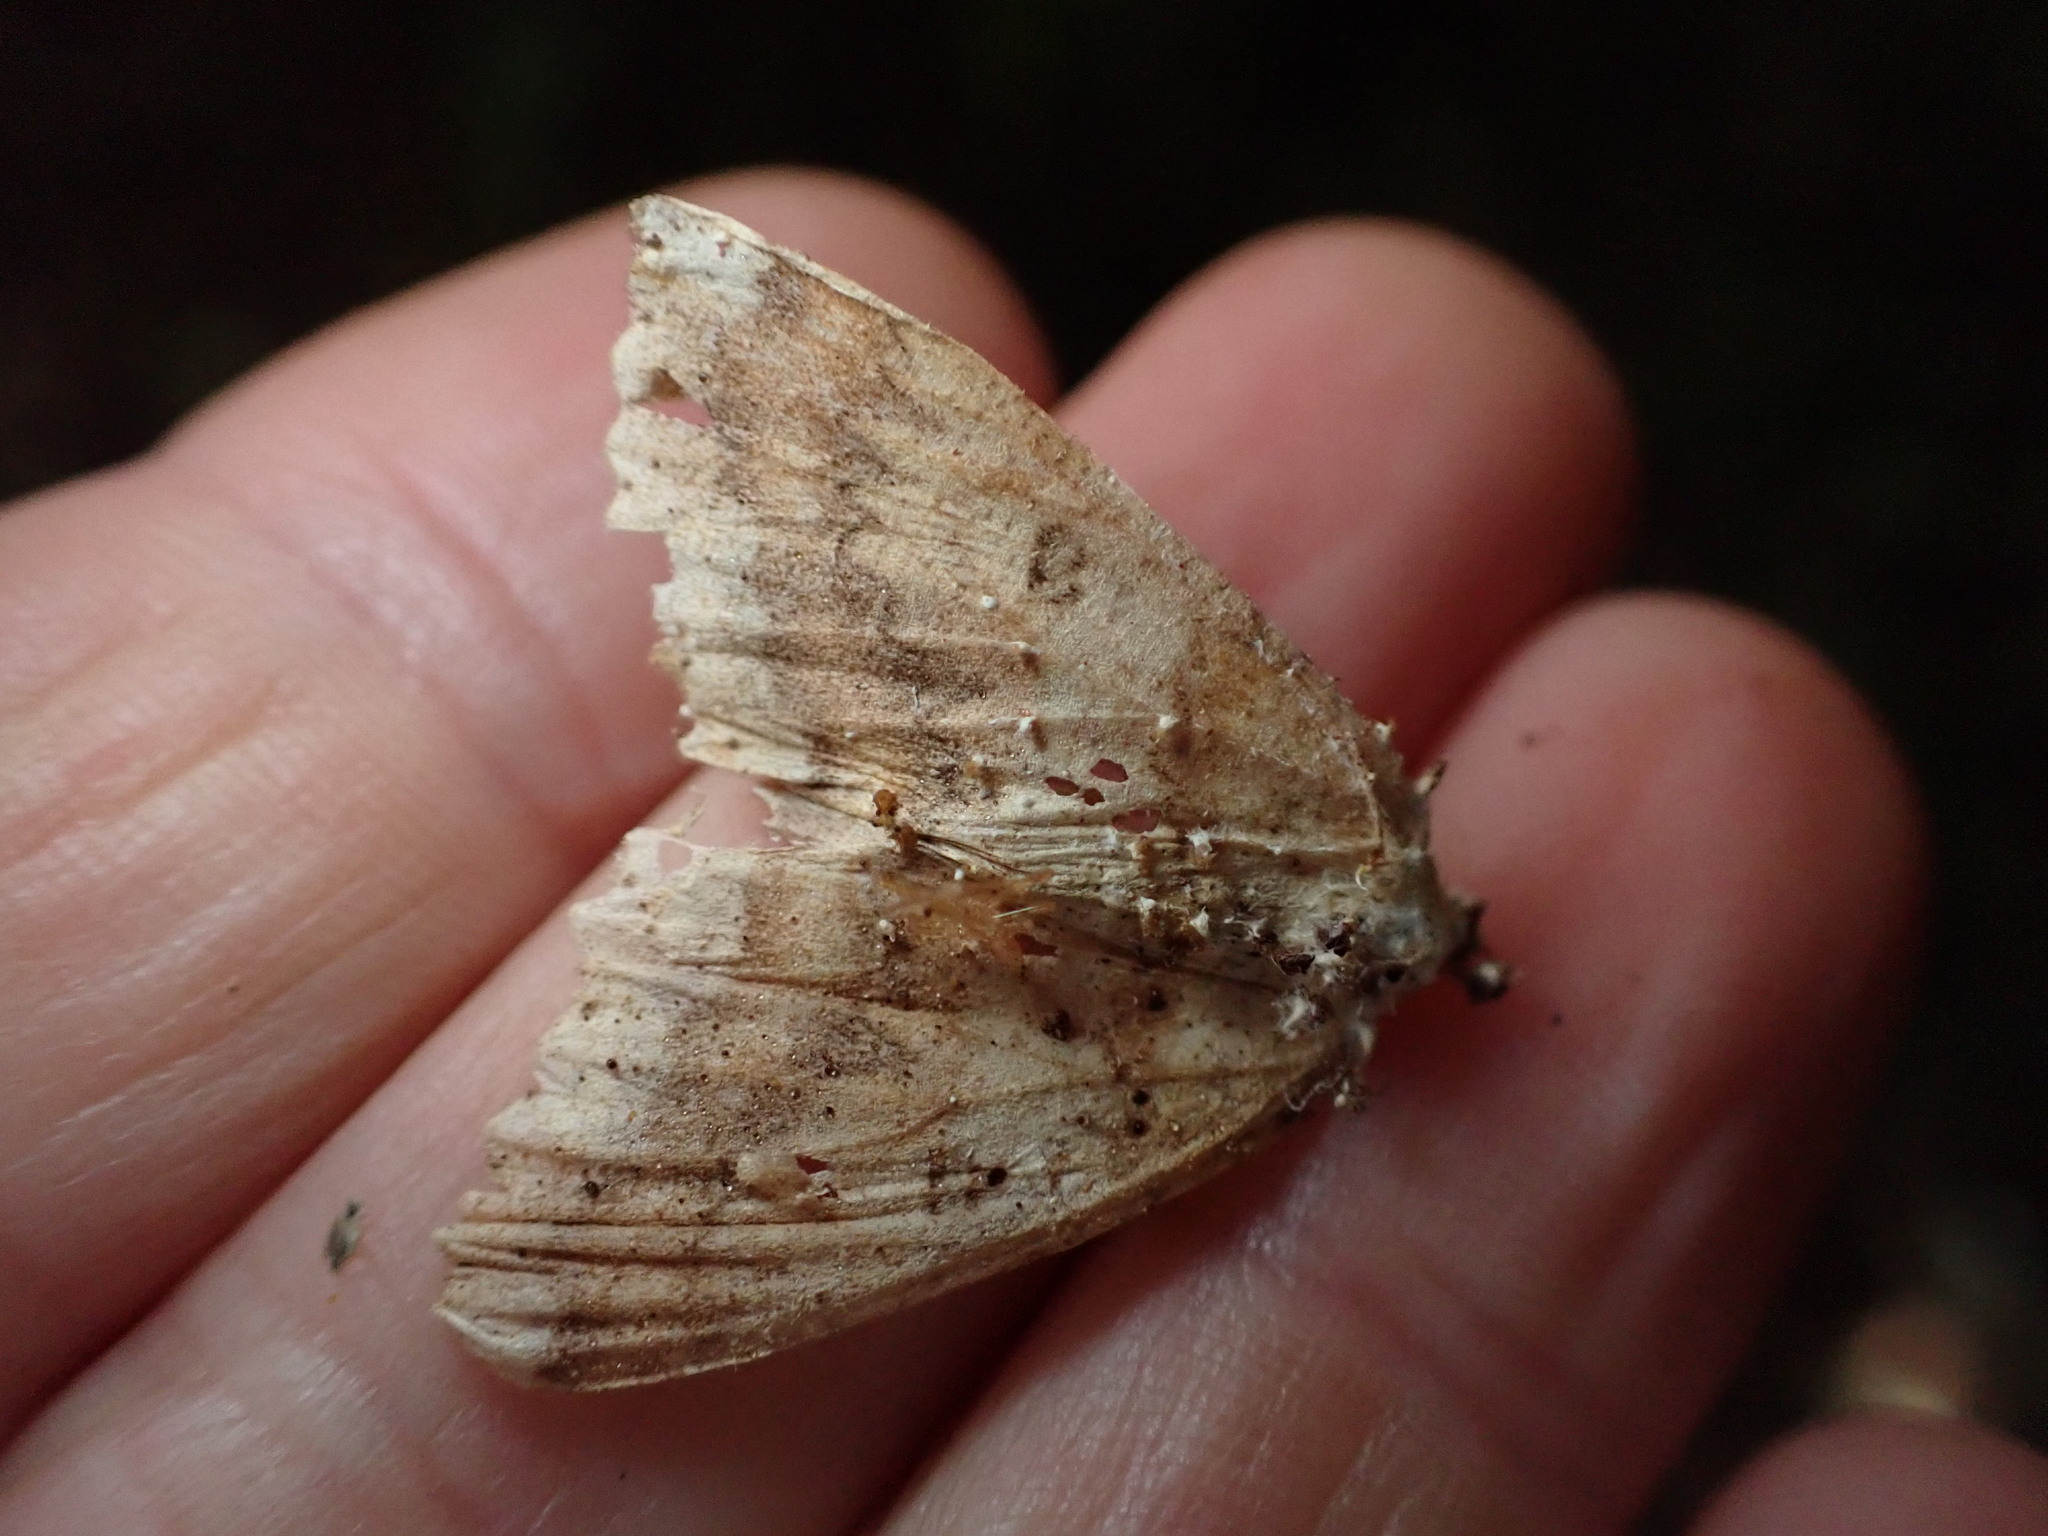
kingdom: Animalia
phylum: Arthropoda
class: Insecta
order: Lepidoptera
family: Geometridae
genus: Cleora
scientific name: Cleora scriptaria
